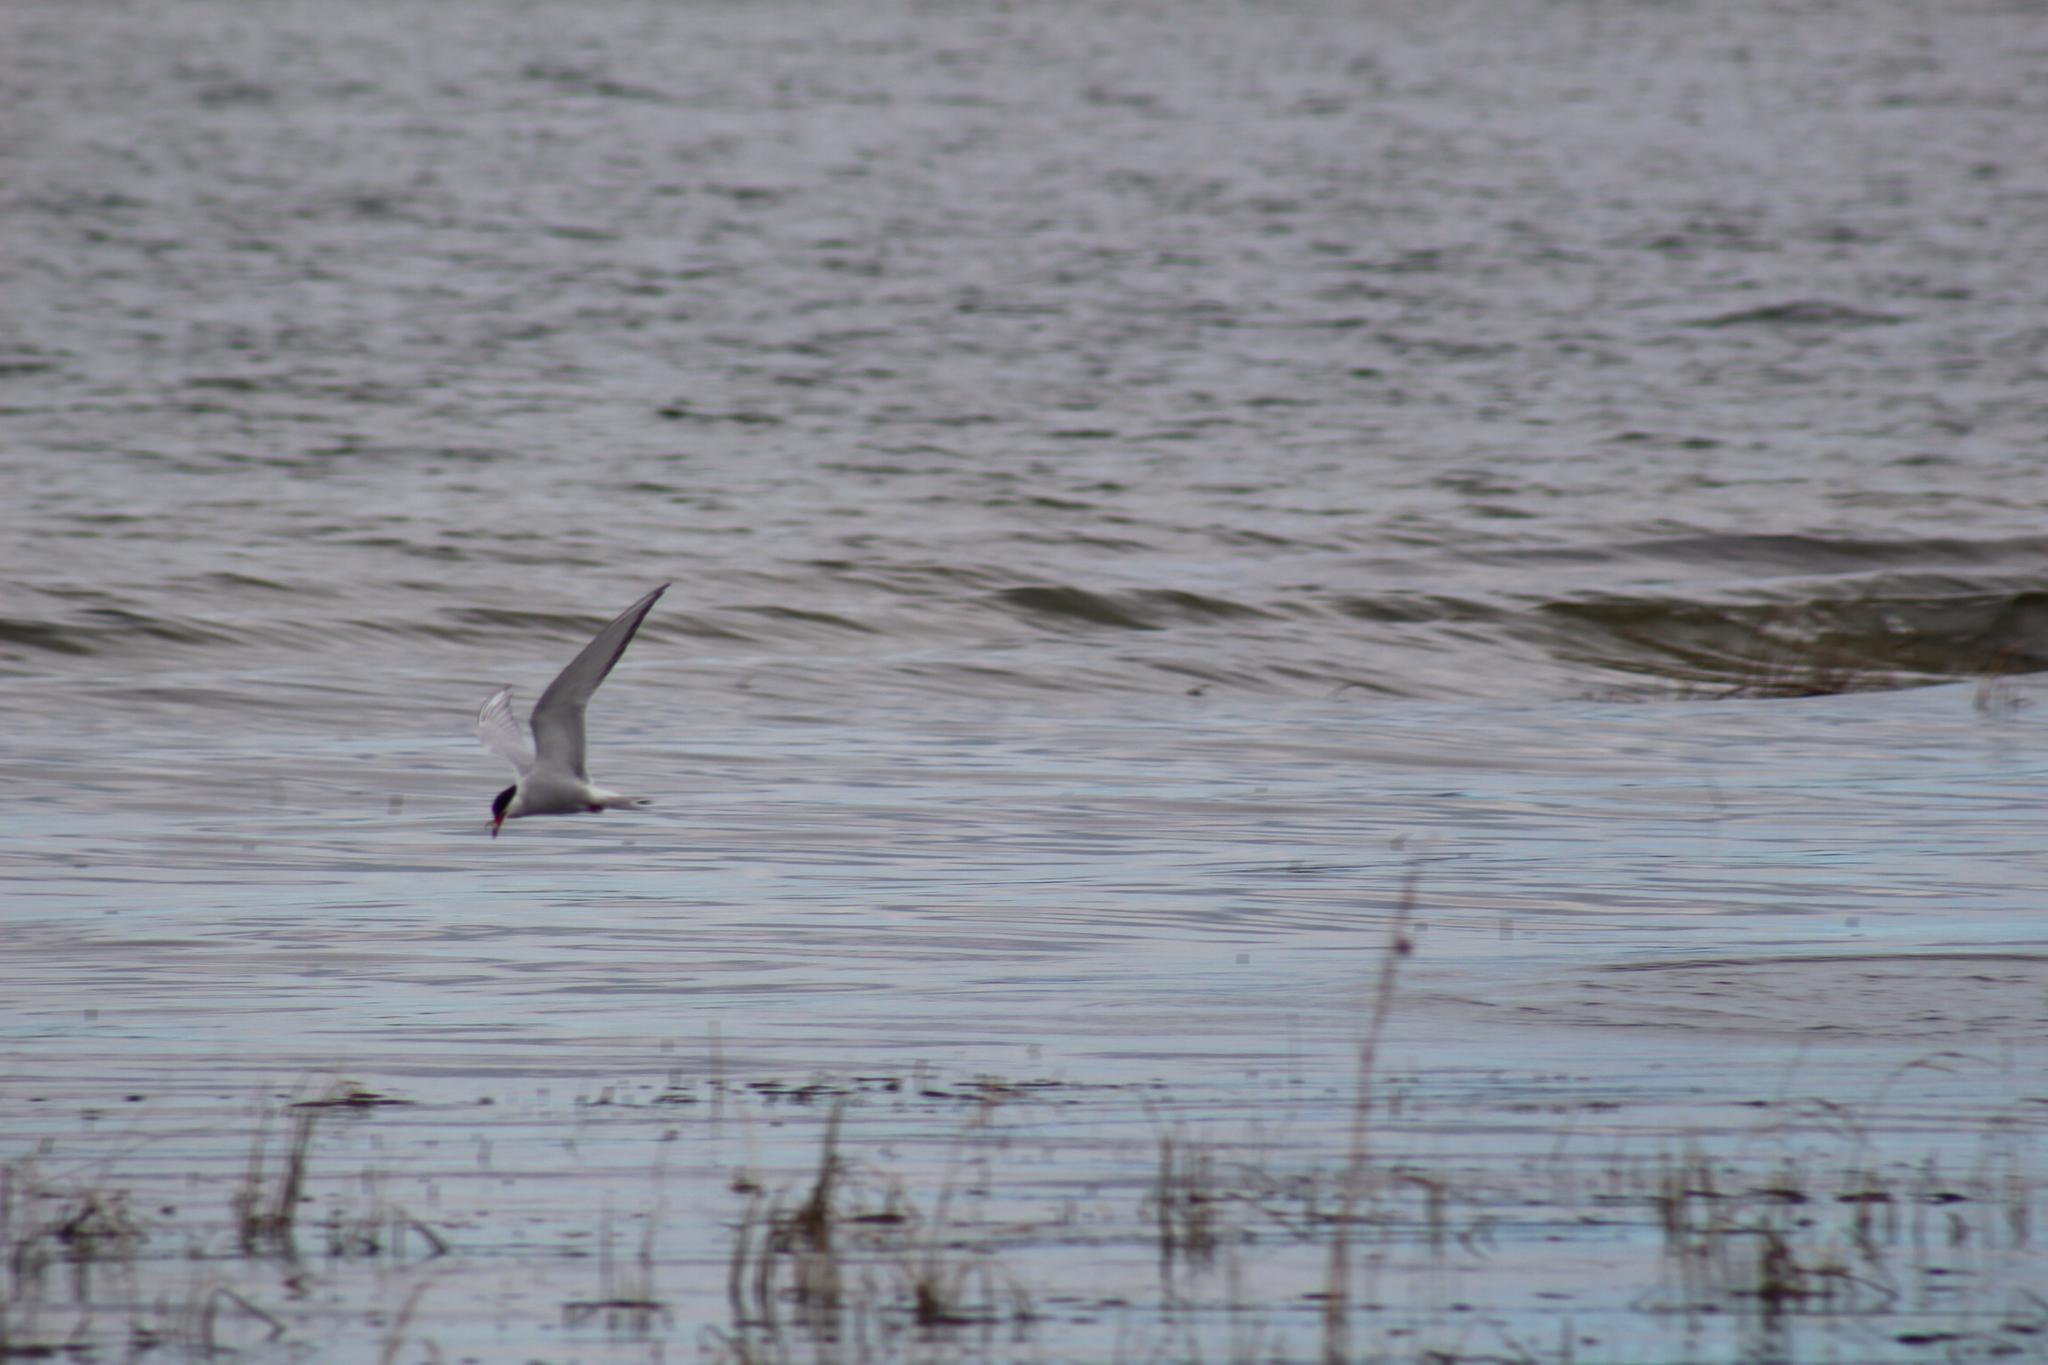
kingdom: Animalia
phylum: Chordata
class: Aves
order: Charadriiformes
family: Laridae
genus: Sterna
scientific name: Sterna paradisaea
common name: Arctic tern
